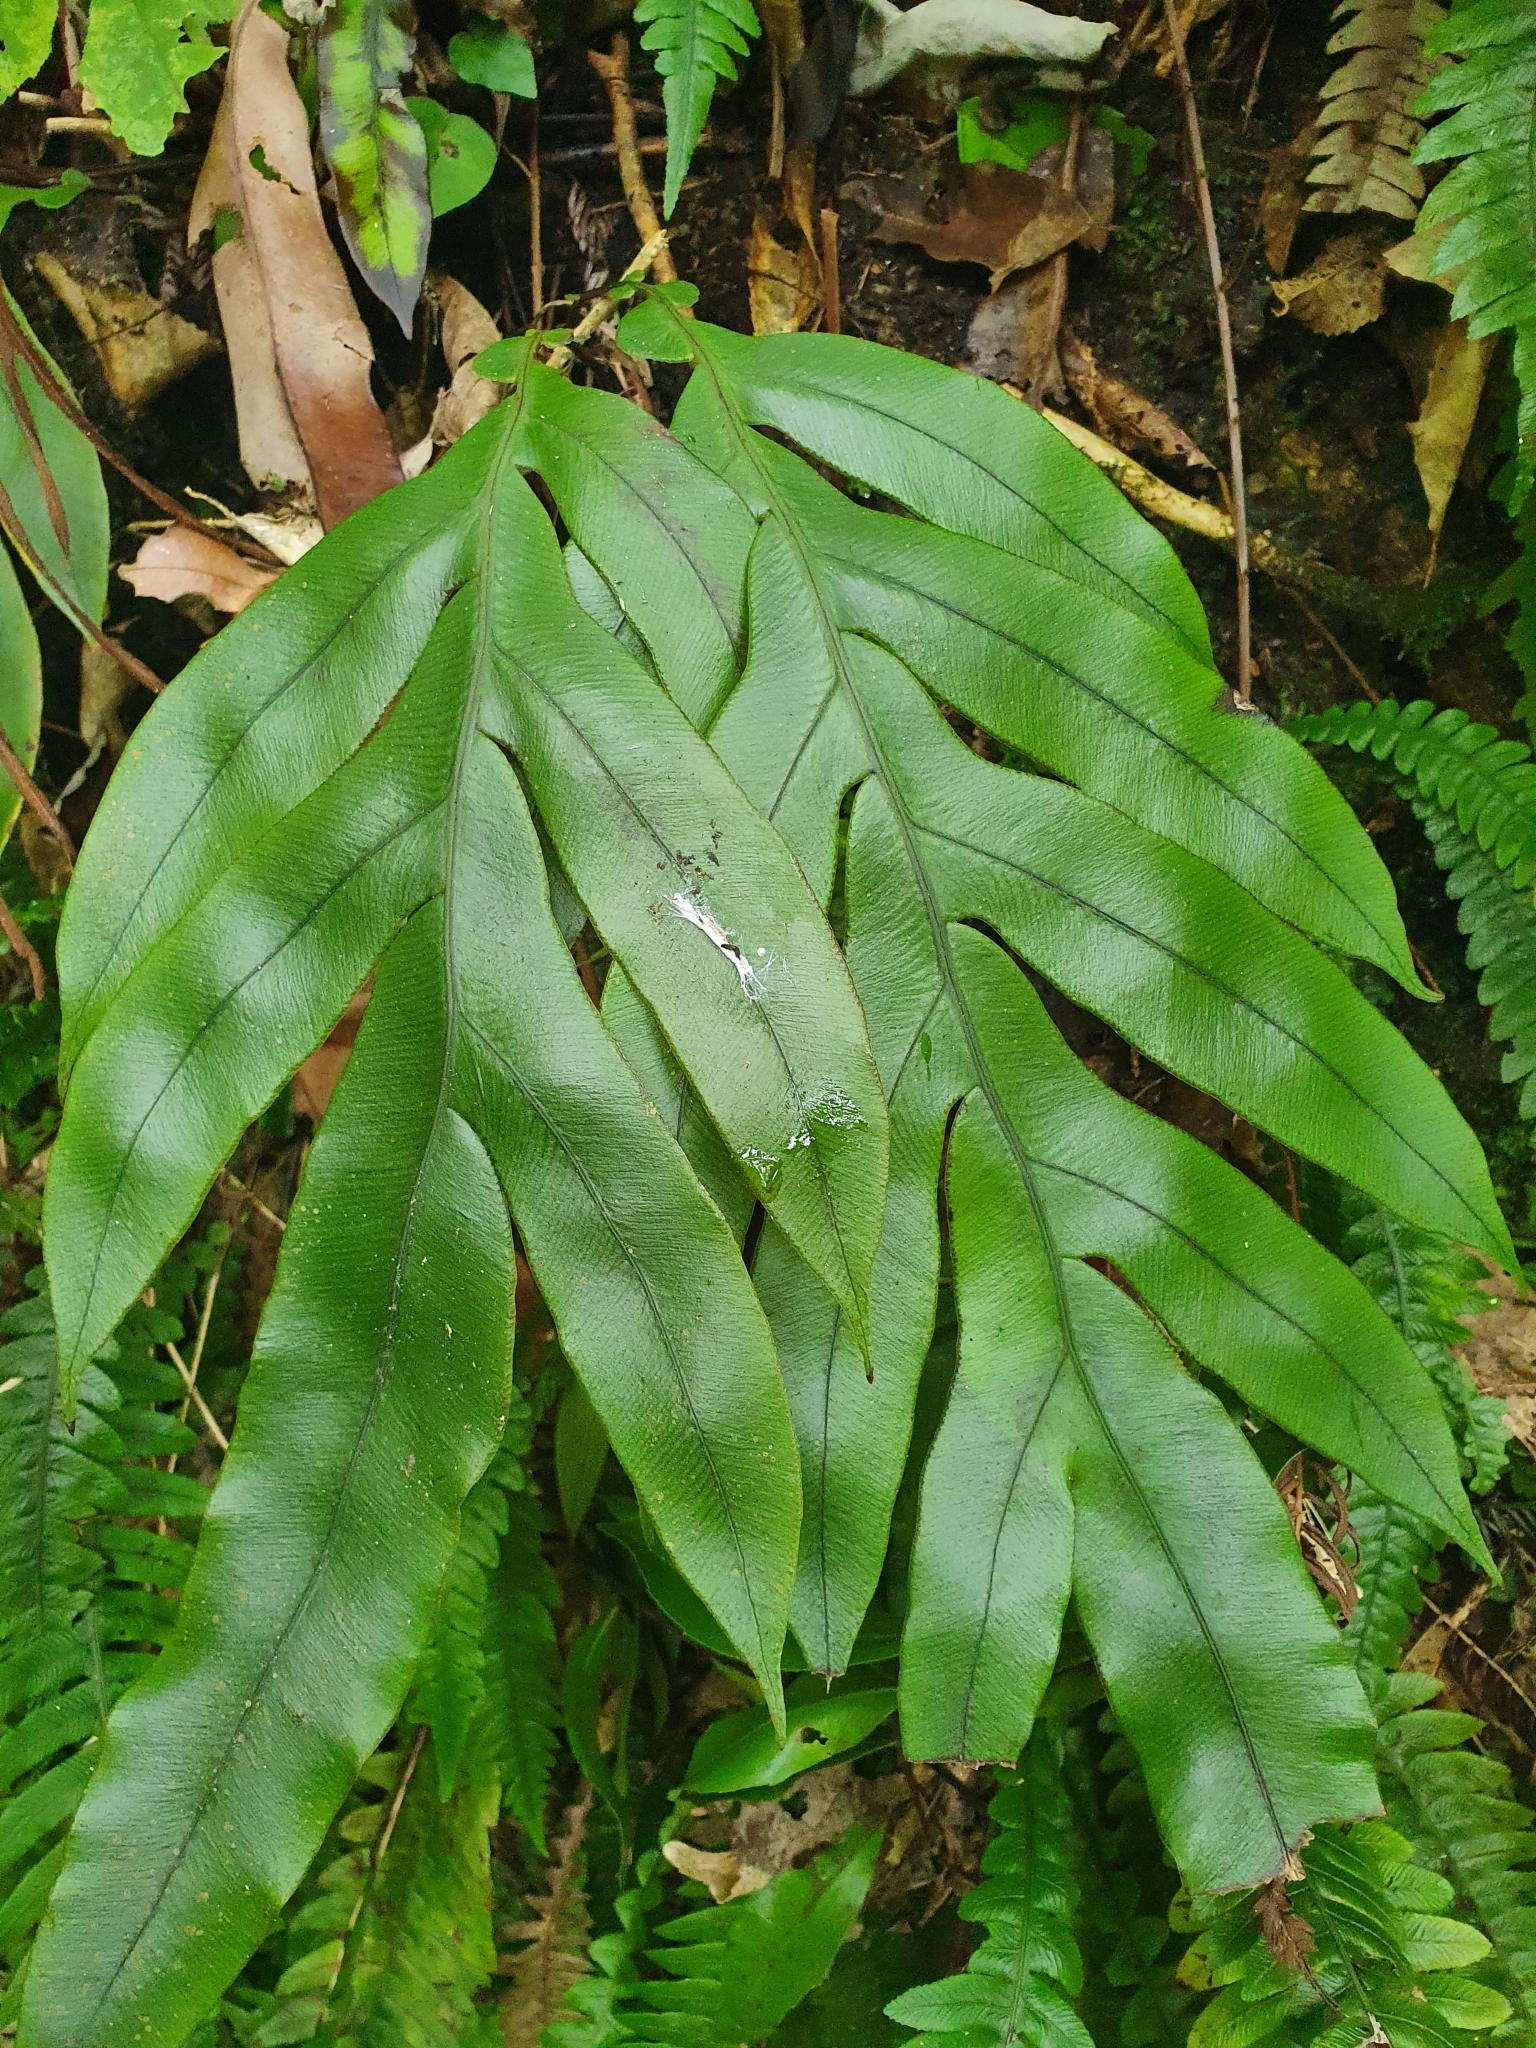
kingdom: Plantae
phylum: Tracheophyta
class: Polypodiopsida
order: Polypodiales
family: Blechnaceae
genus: Austroblechnum
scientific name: Austroblechnum colensoi
